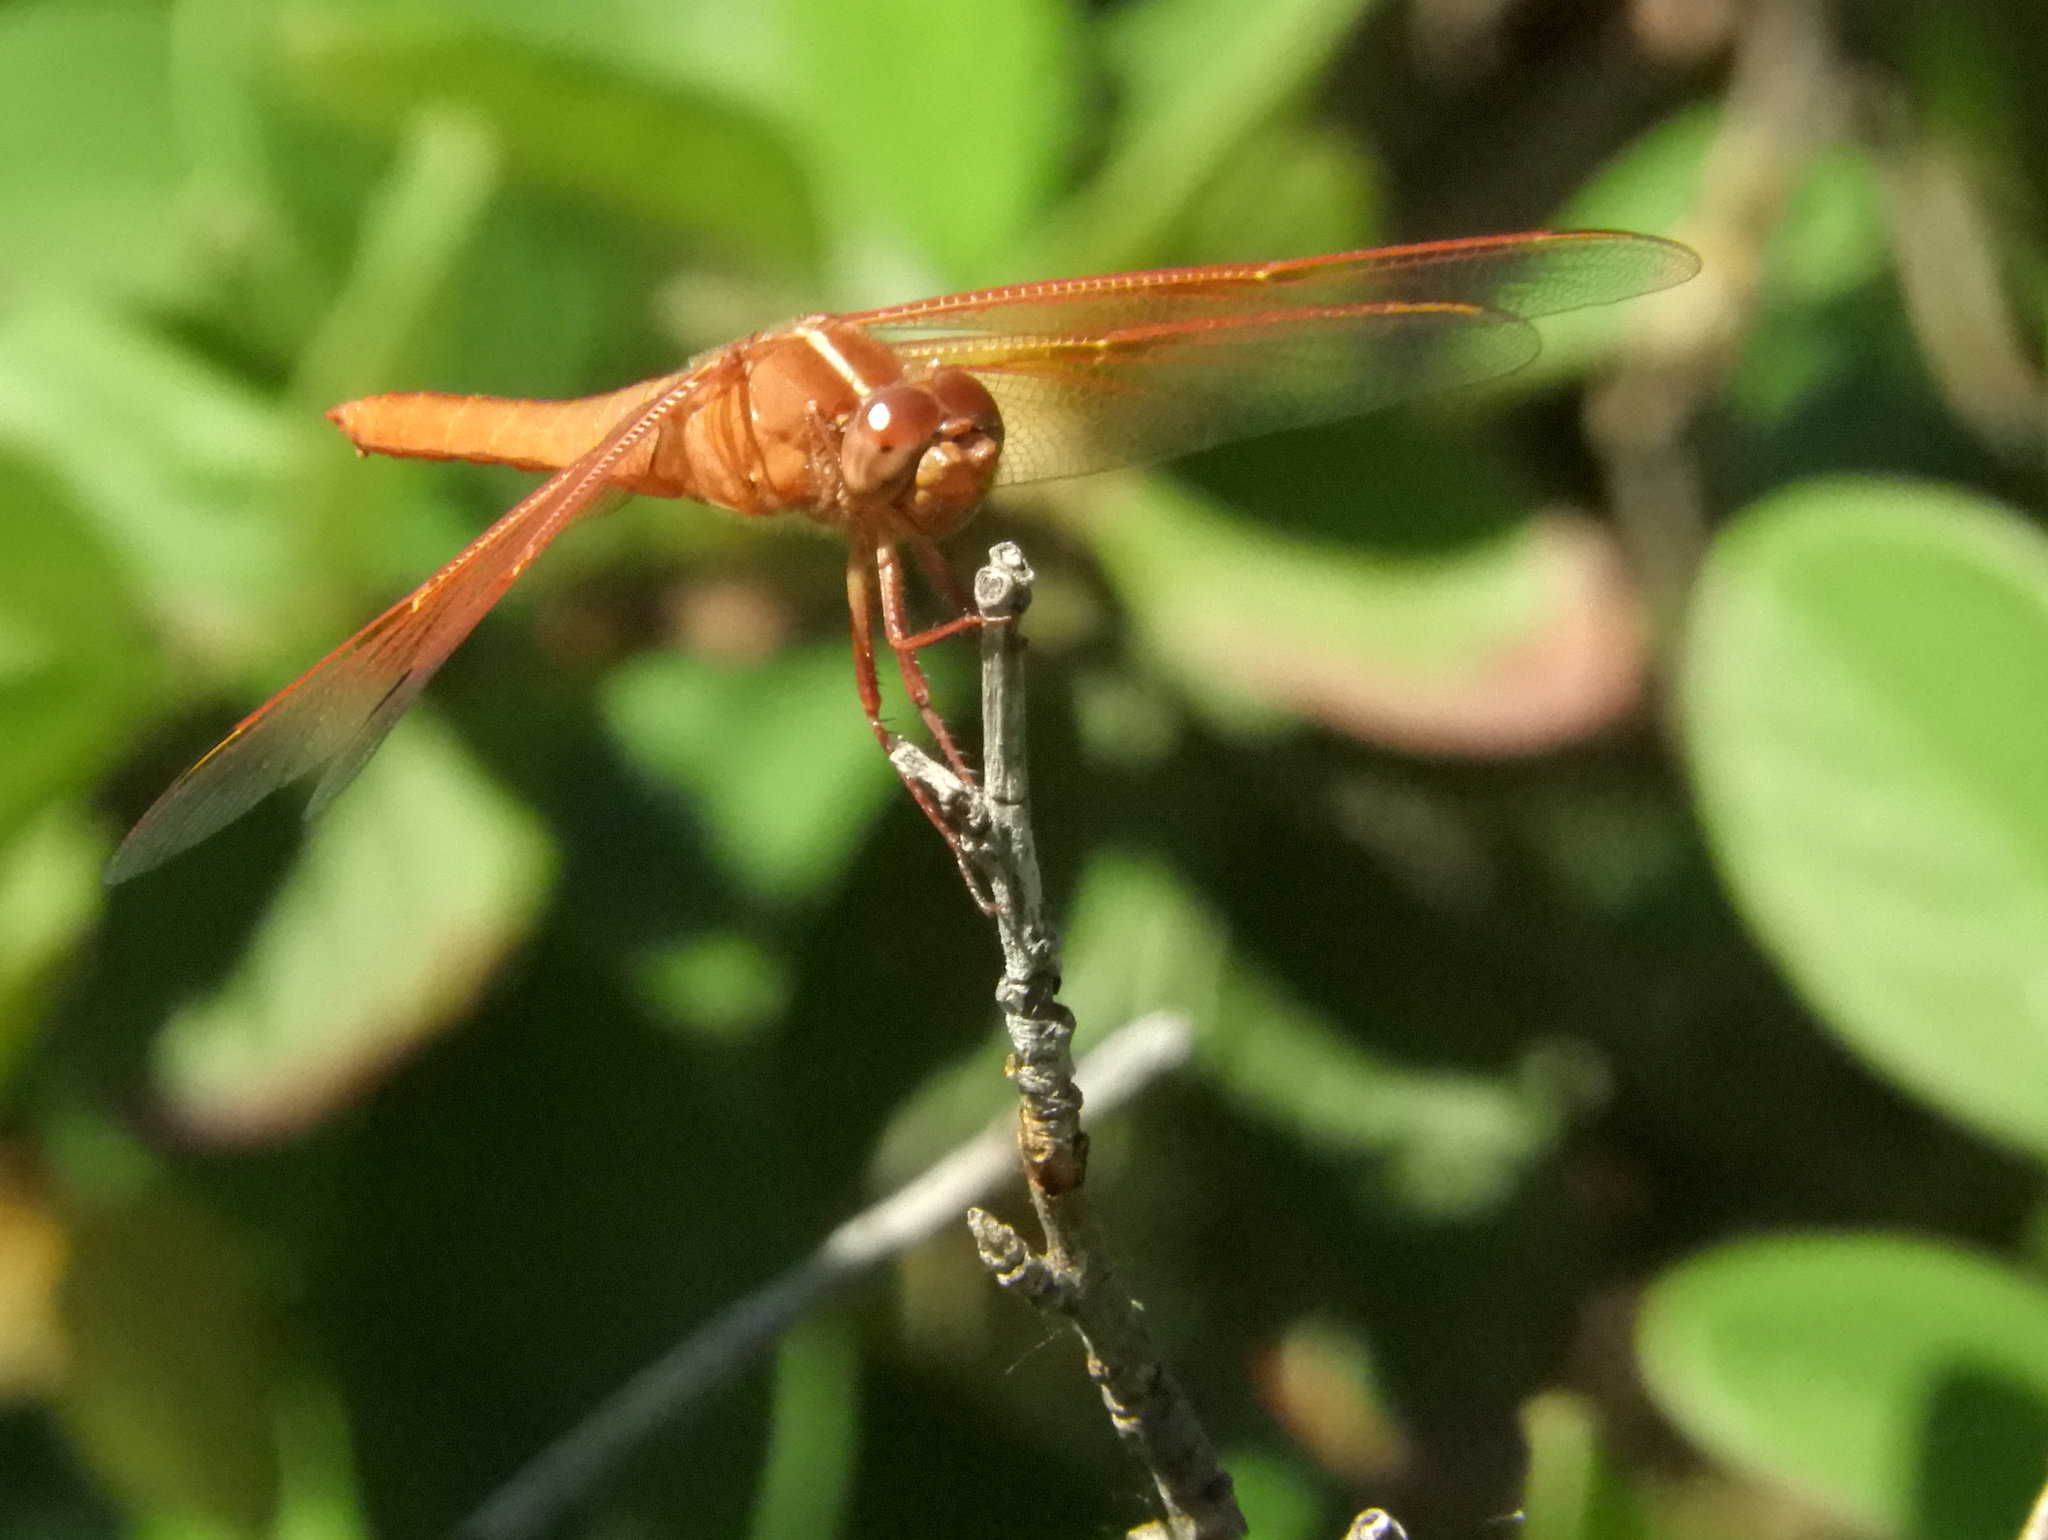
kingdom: Animalia
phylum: Arthropoda
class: Insecta
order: Odonata
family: Libellulidae
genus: Libellula
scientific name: Libellula saturata
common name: Flame skimmer
